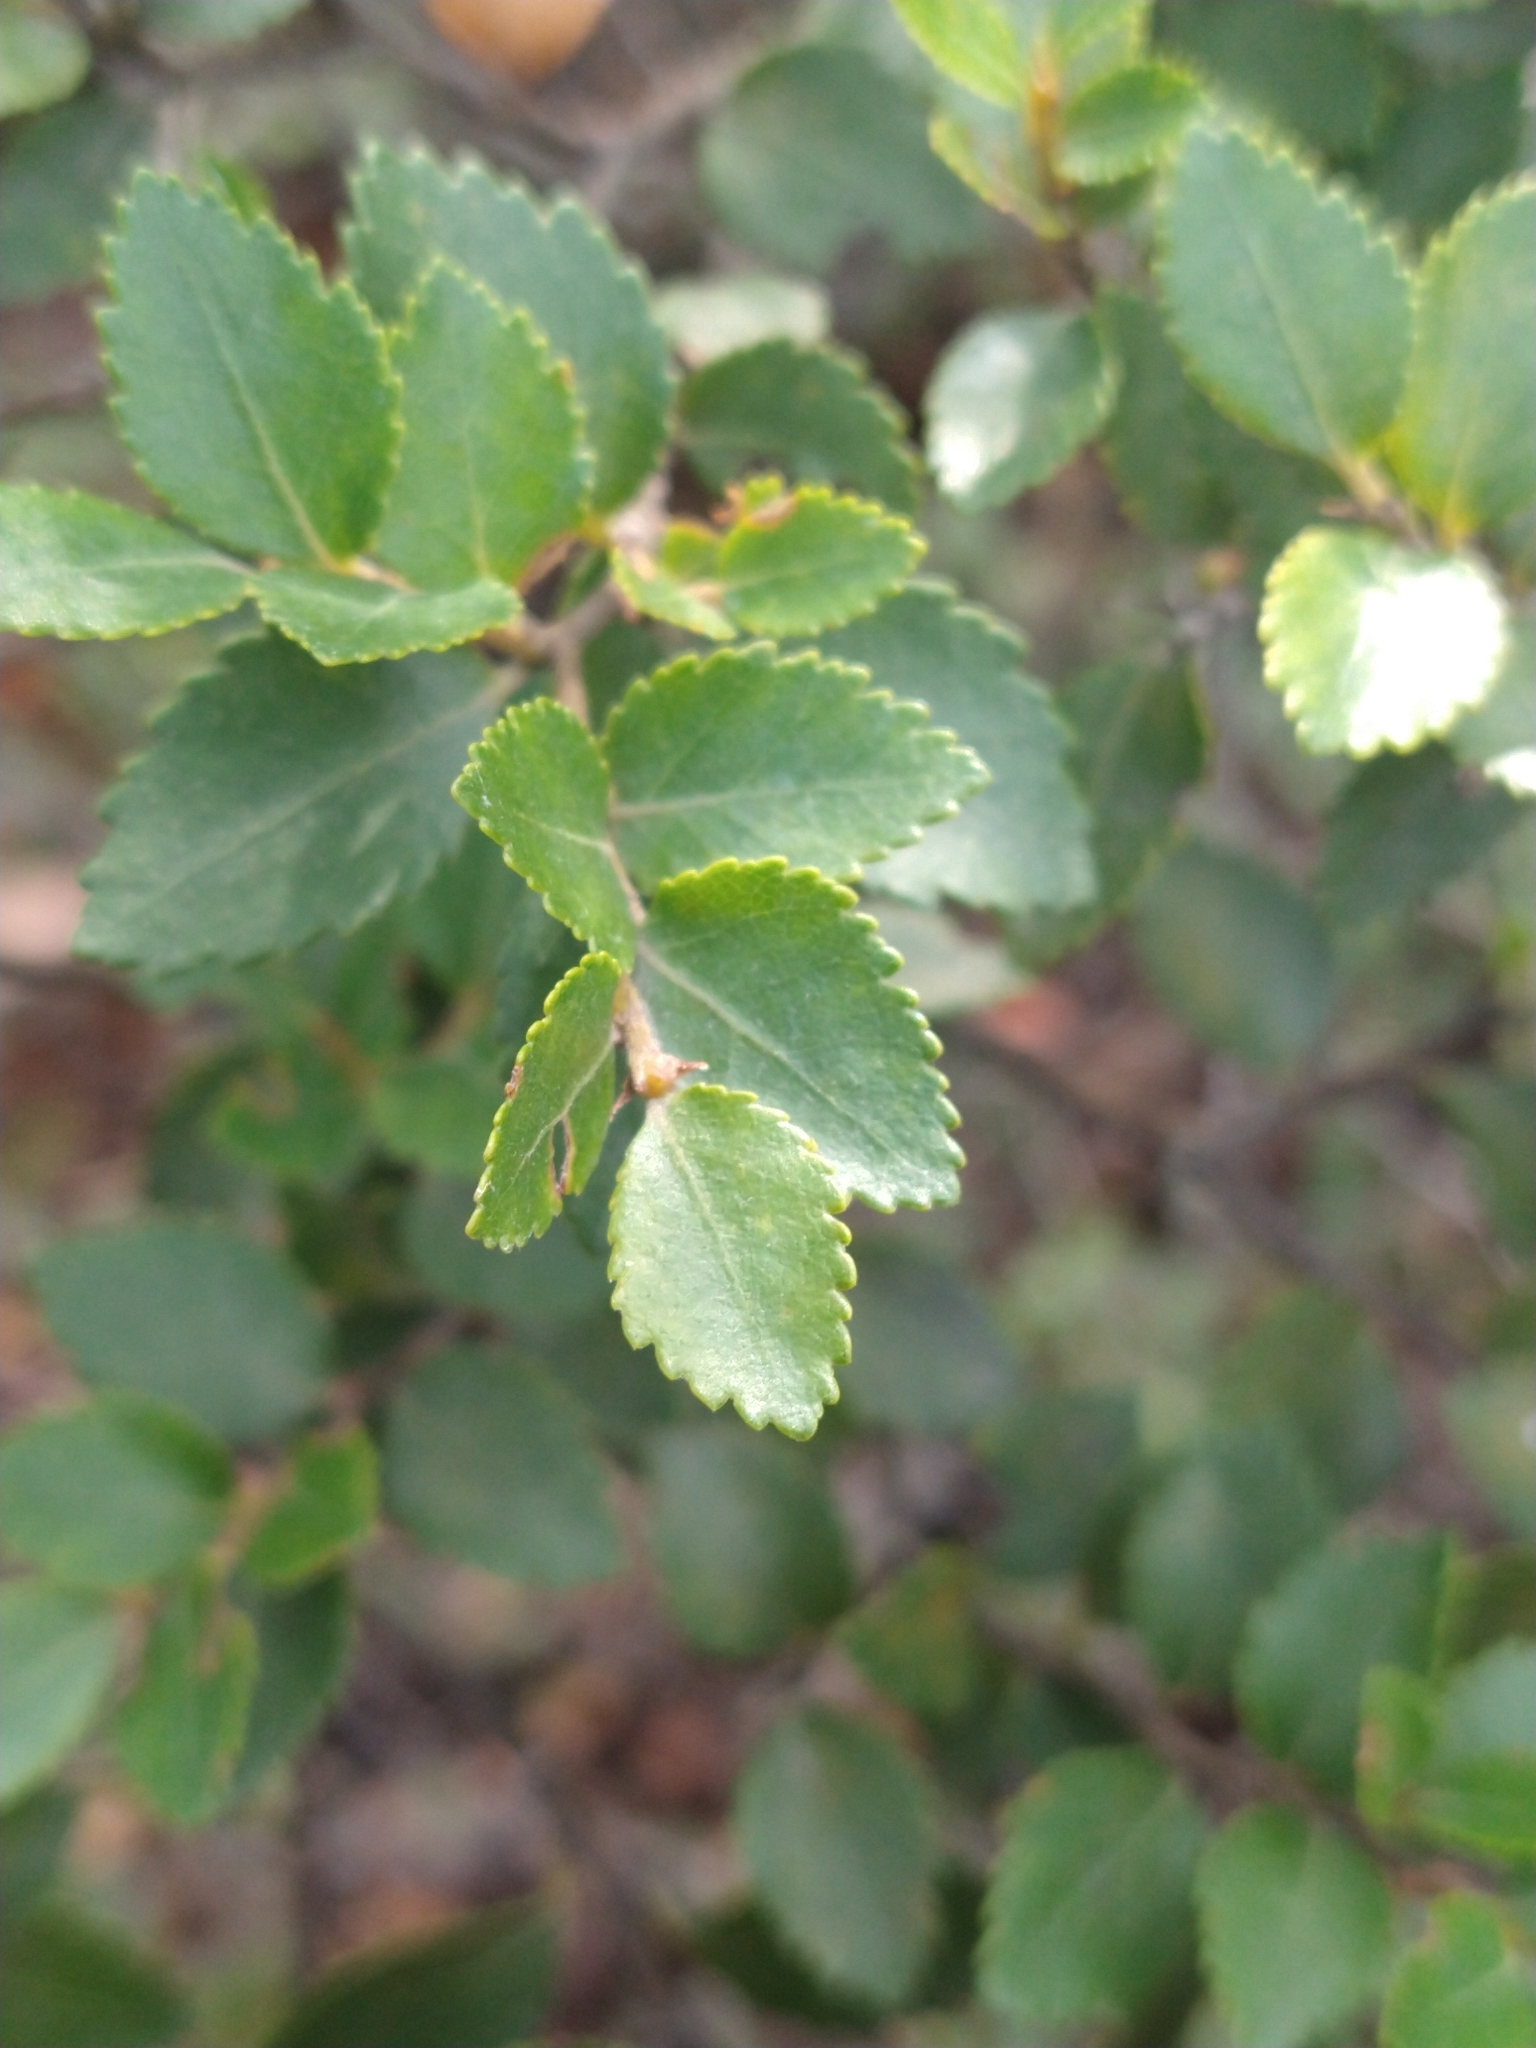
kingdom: Plantae
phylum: Tracheophyta
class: Magnoliopsida
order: Fagales
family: Nothofagaceae
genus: Nothofagus
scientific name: Nothofagus betuloides
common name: Magellan's beech
